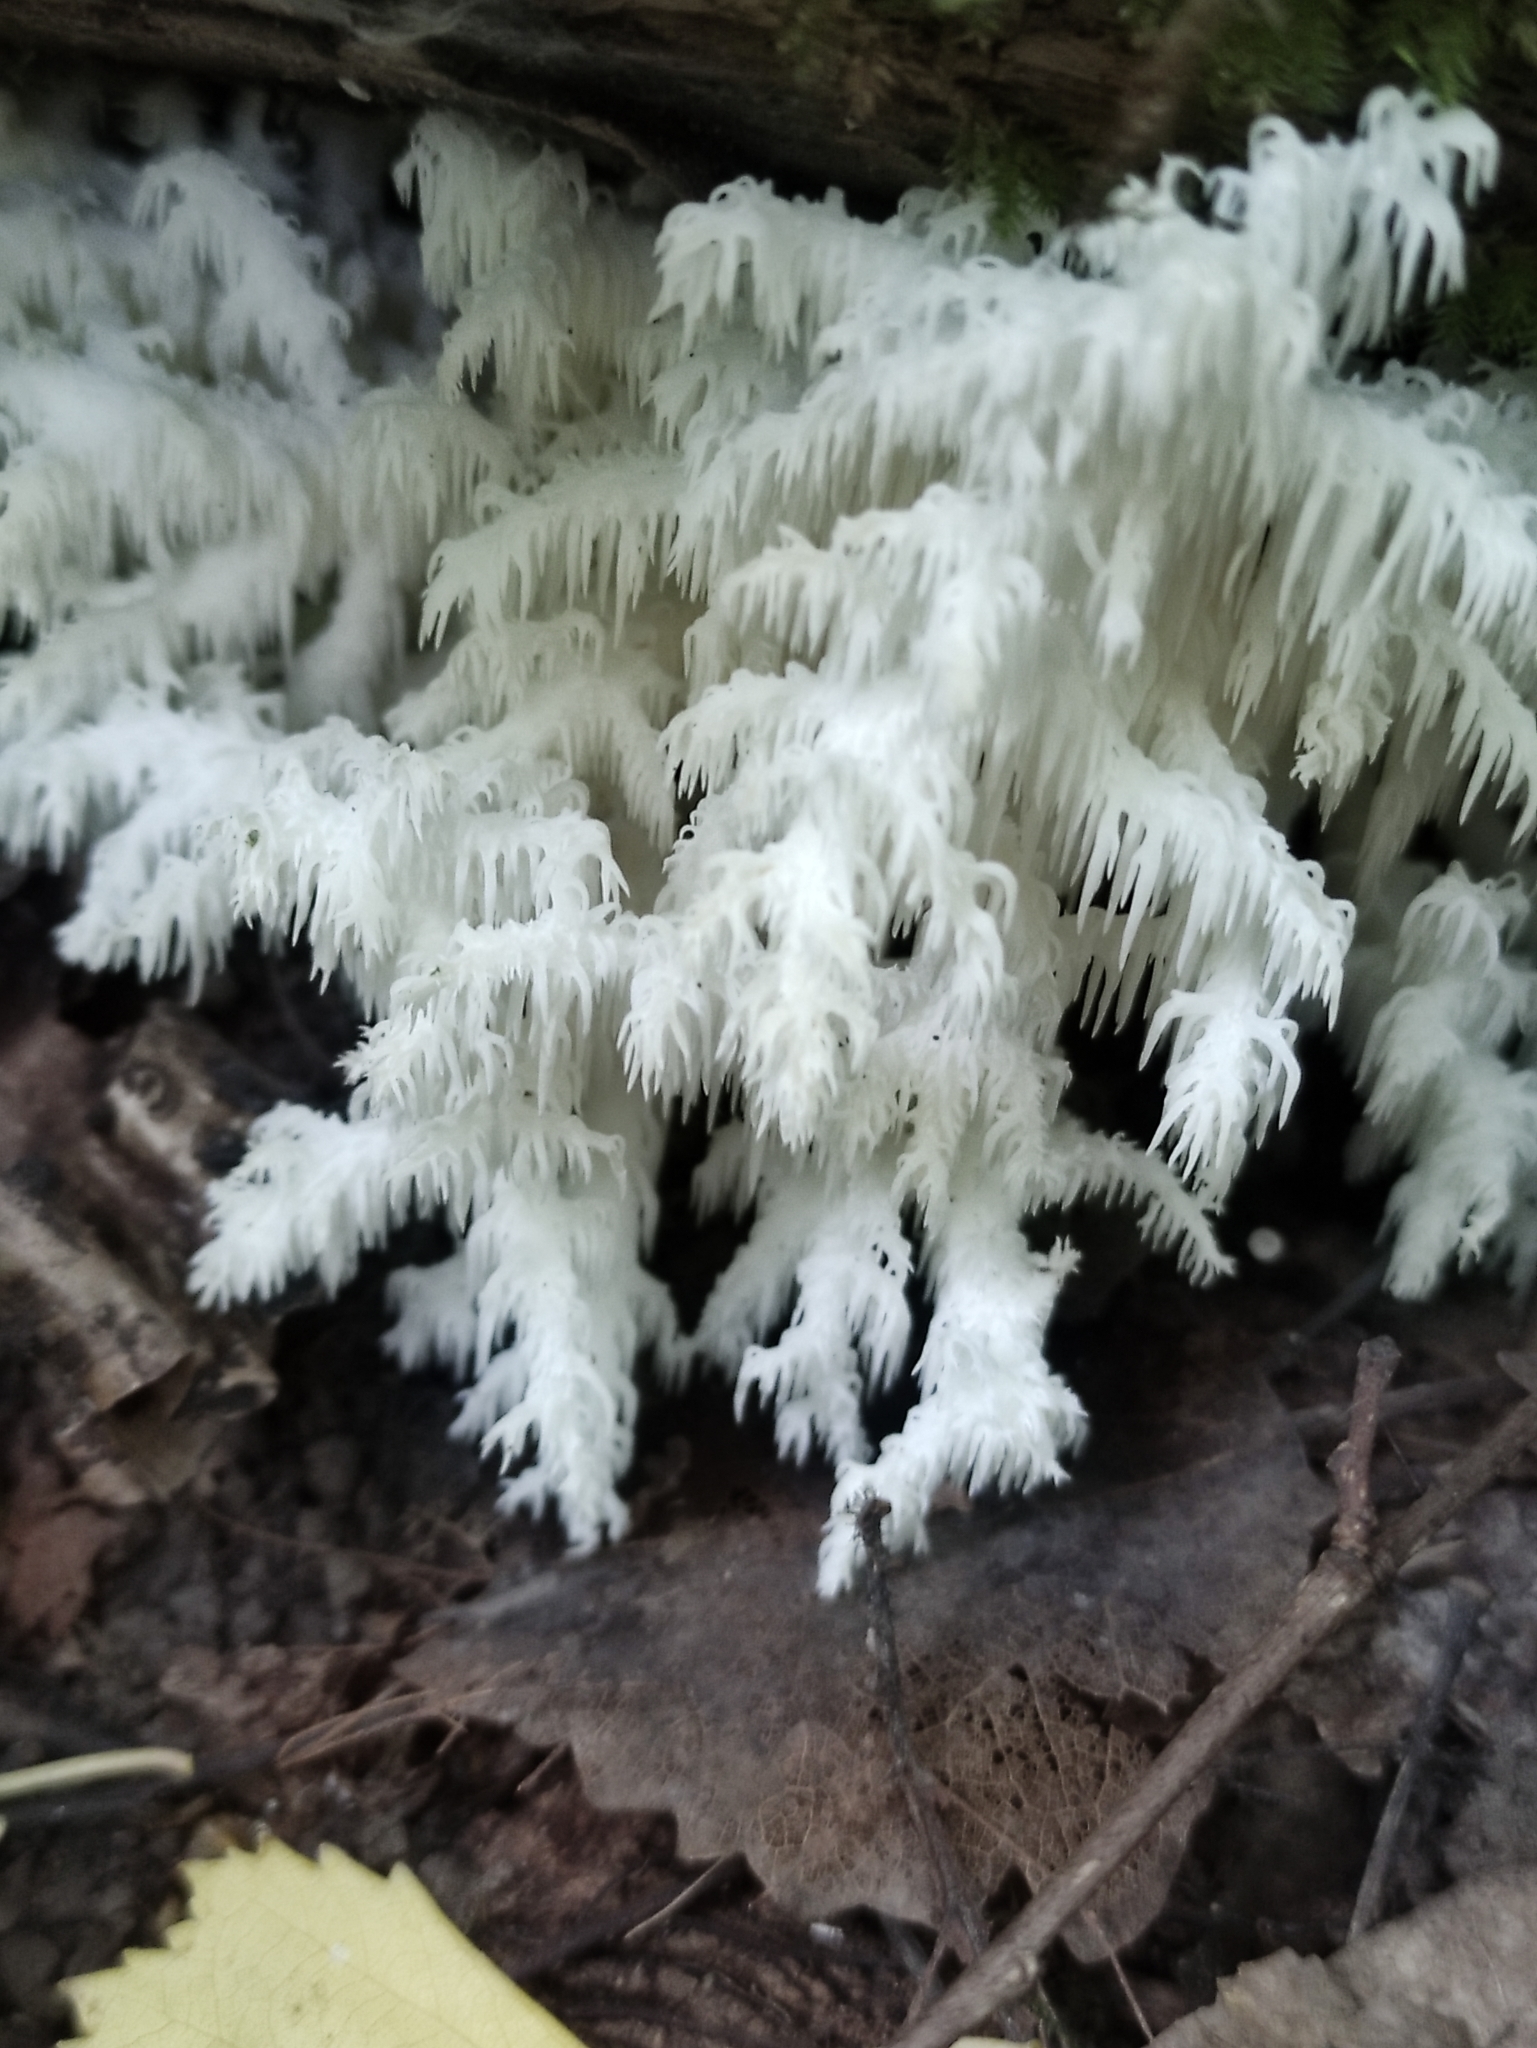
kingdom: Fungi
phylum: Basidiomycota
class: Agaricomycetes
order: Russulales
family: Hericiaceae
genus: Hericium
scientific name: Hericium coralloides
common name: Coral tooth
